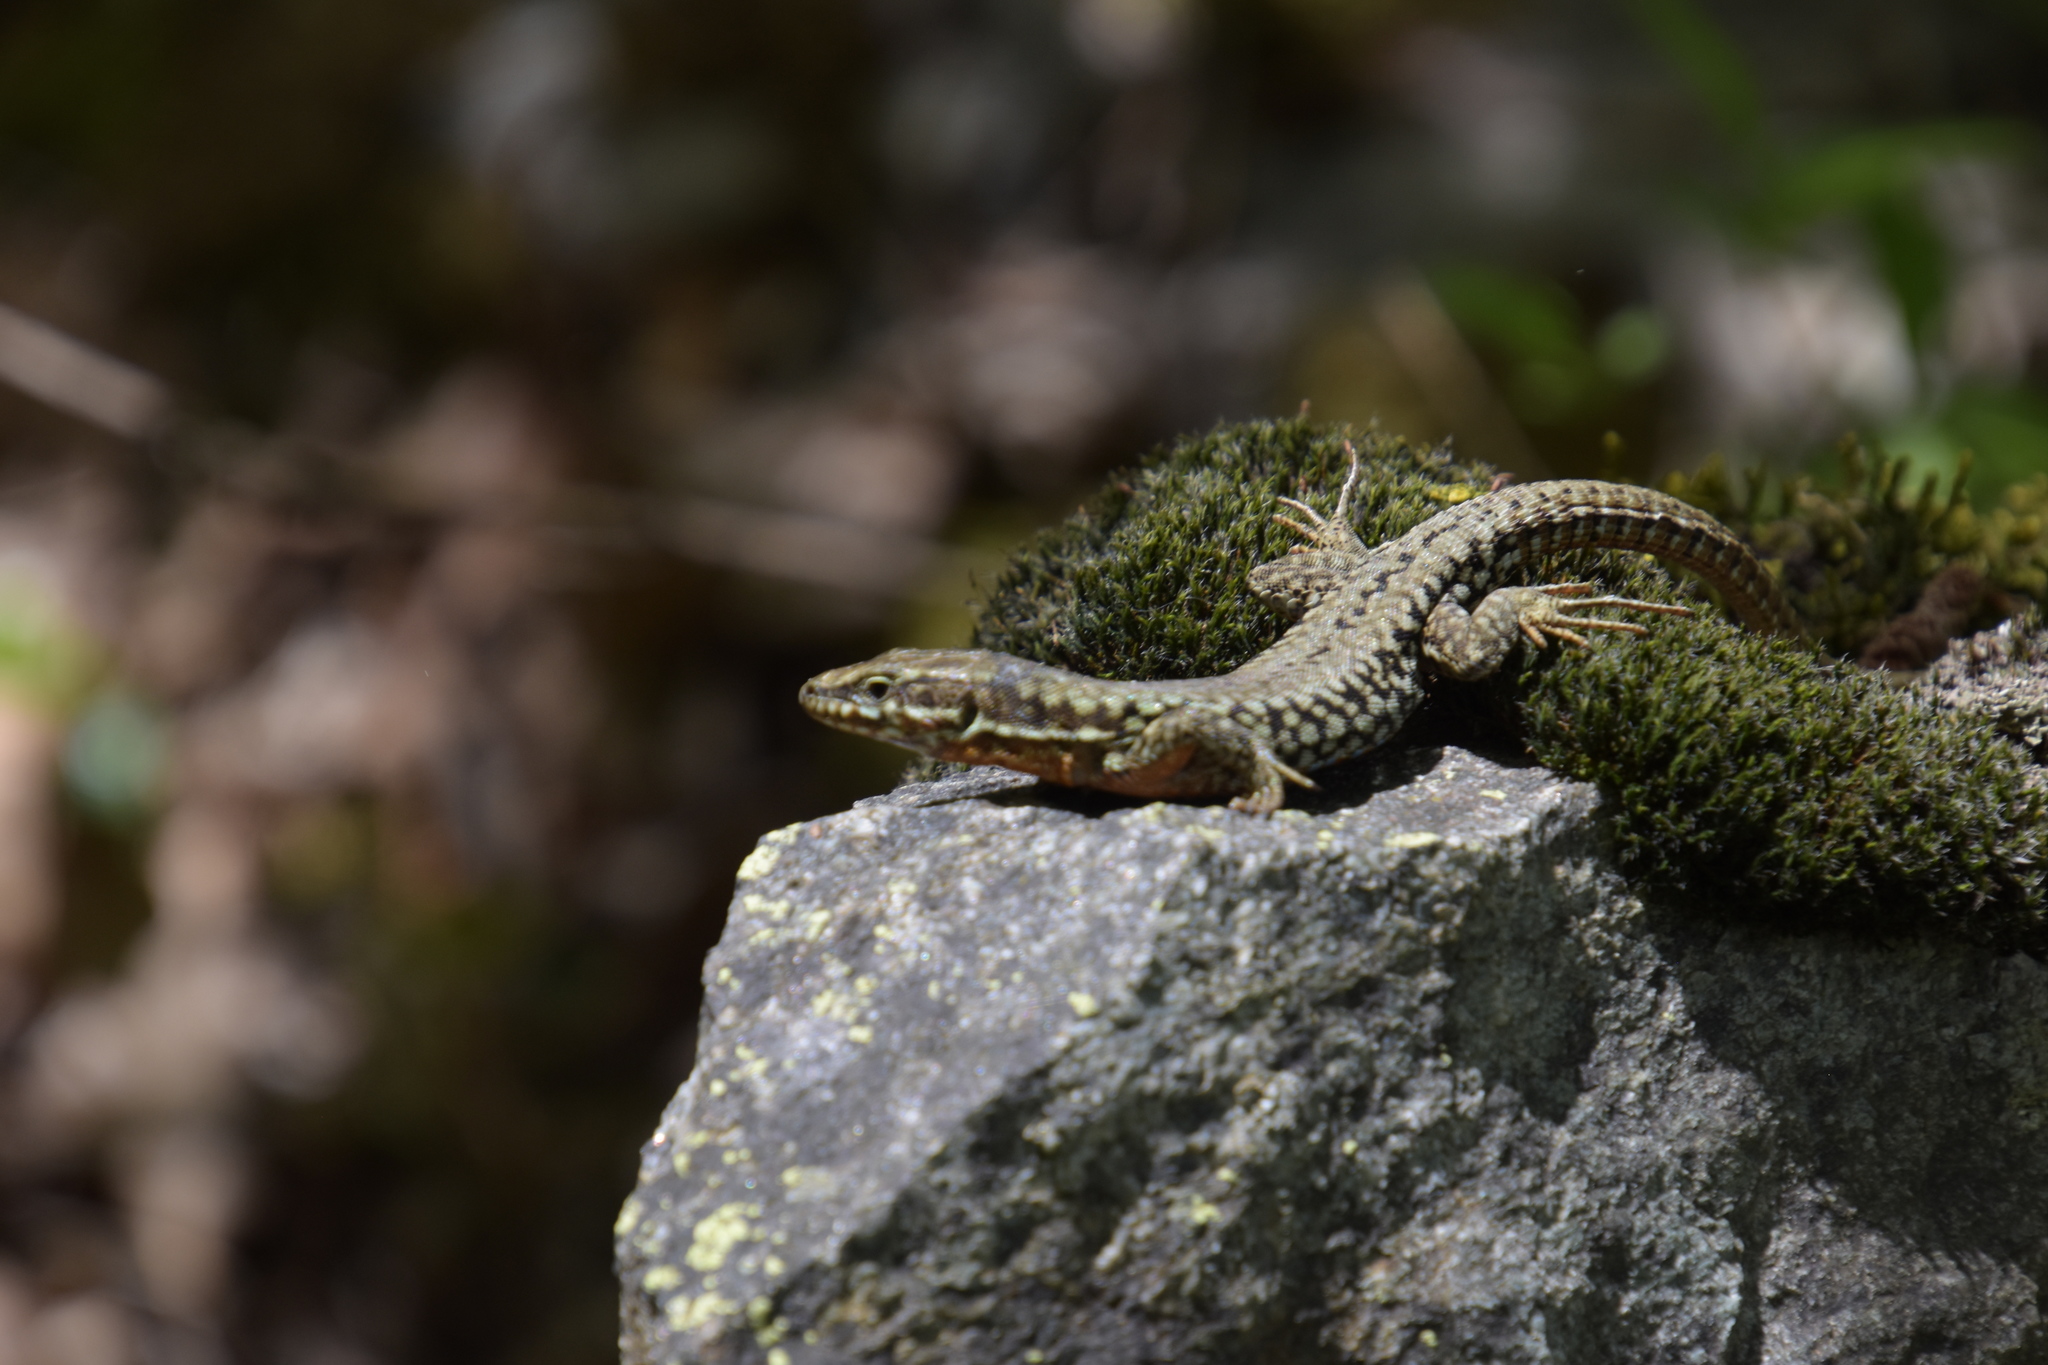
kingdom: Animalia
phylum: Chordata
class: Squamata
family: Lacertidae
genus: Podarcis
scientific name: Podarcis muralis
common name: Common wall lizard
